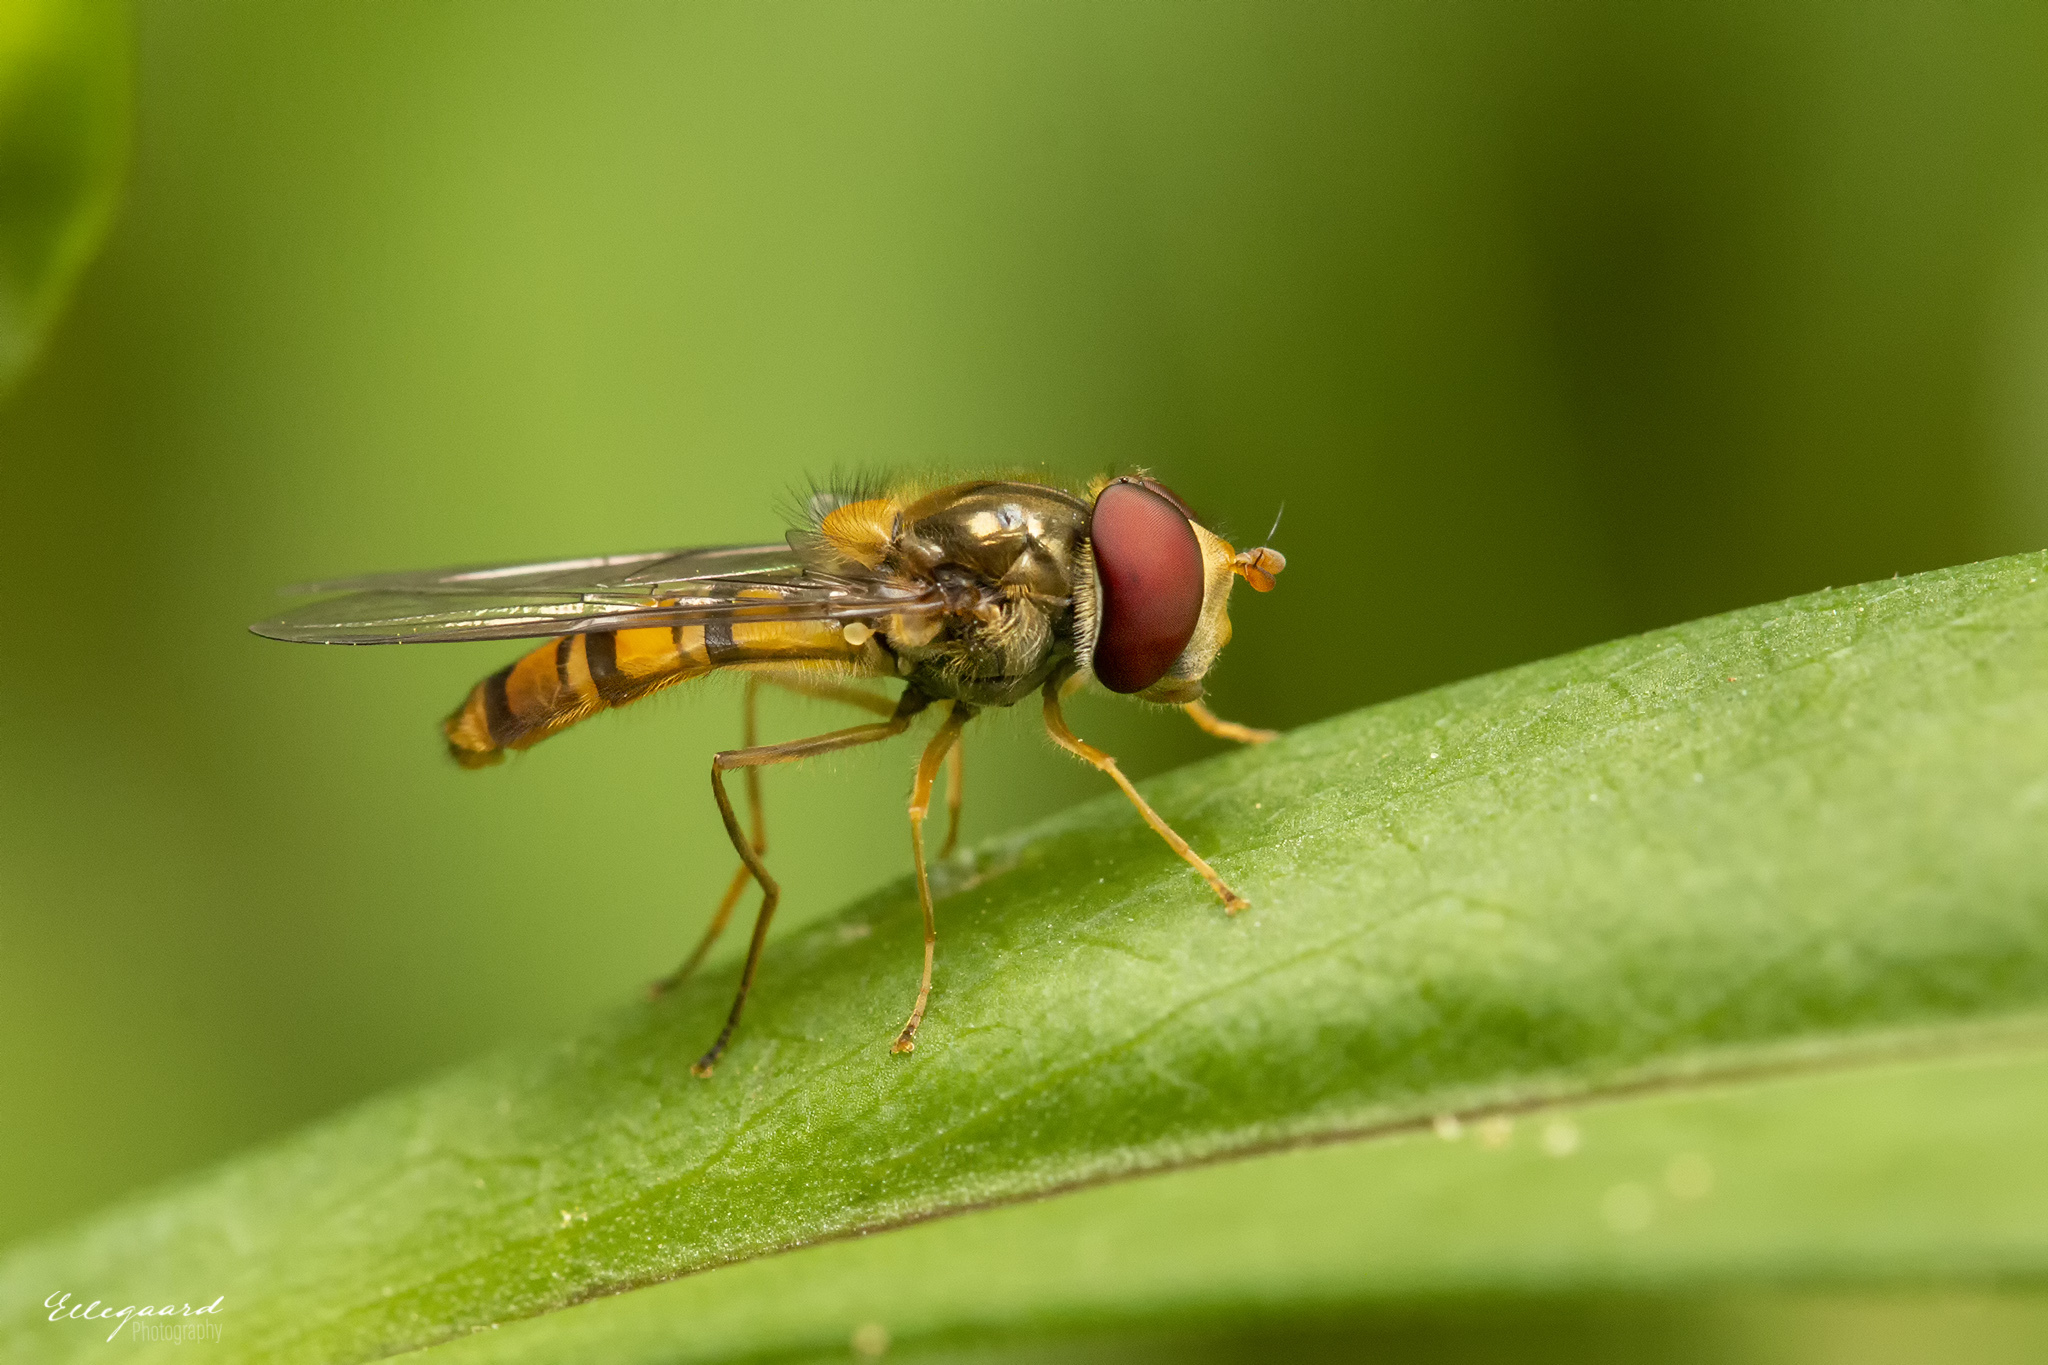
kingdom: Animalia
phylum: Arthropoda
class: Insecta
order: Diptera
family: Syrphidae
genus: Episyrphus
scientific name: Episyrphus balteatus
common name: Marmalade hoverfly
